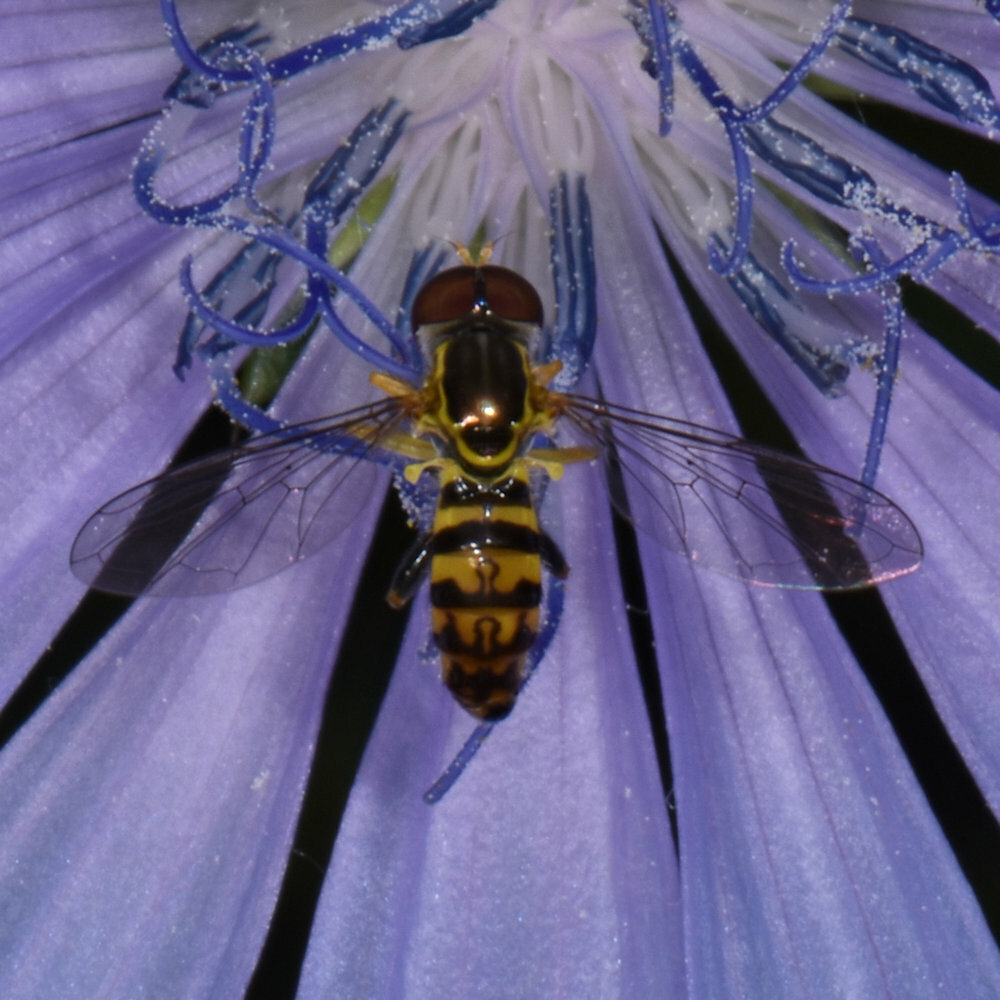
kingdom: Animalia
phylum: Arthropoda
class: Insecta
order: Diptera
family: Syrphidae
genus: Toxomerus
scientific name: Toxomerus geminatus
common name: Eastern calligrapher
